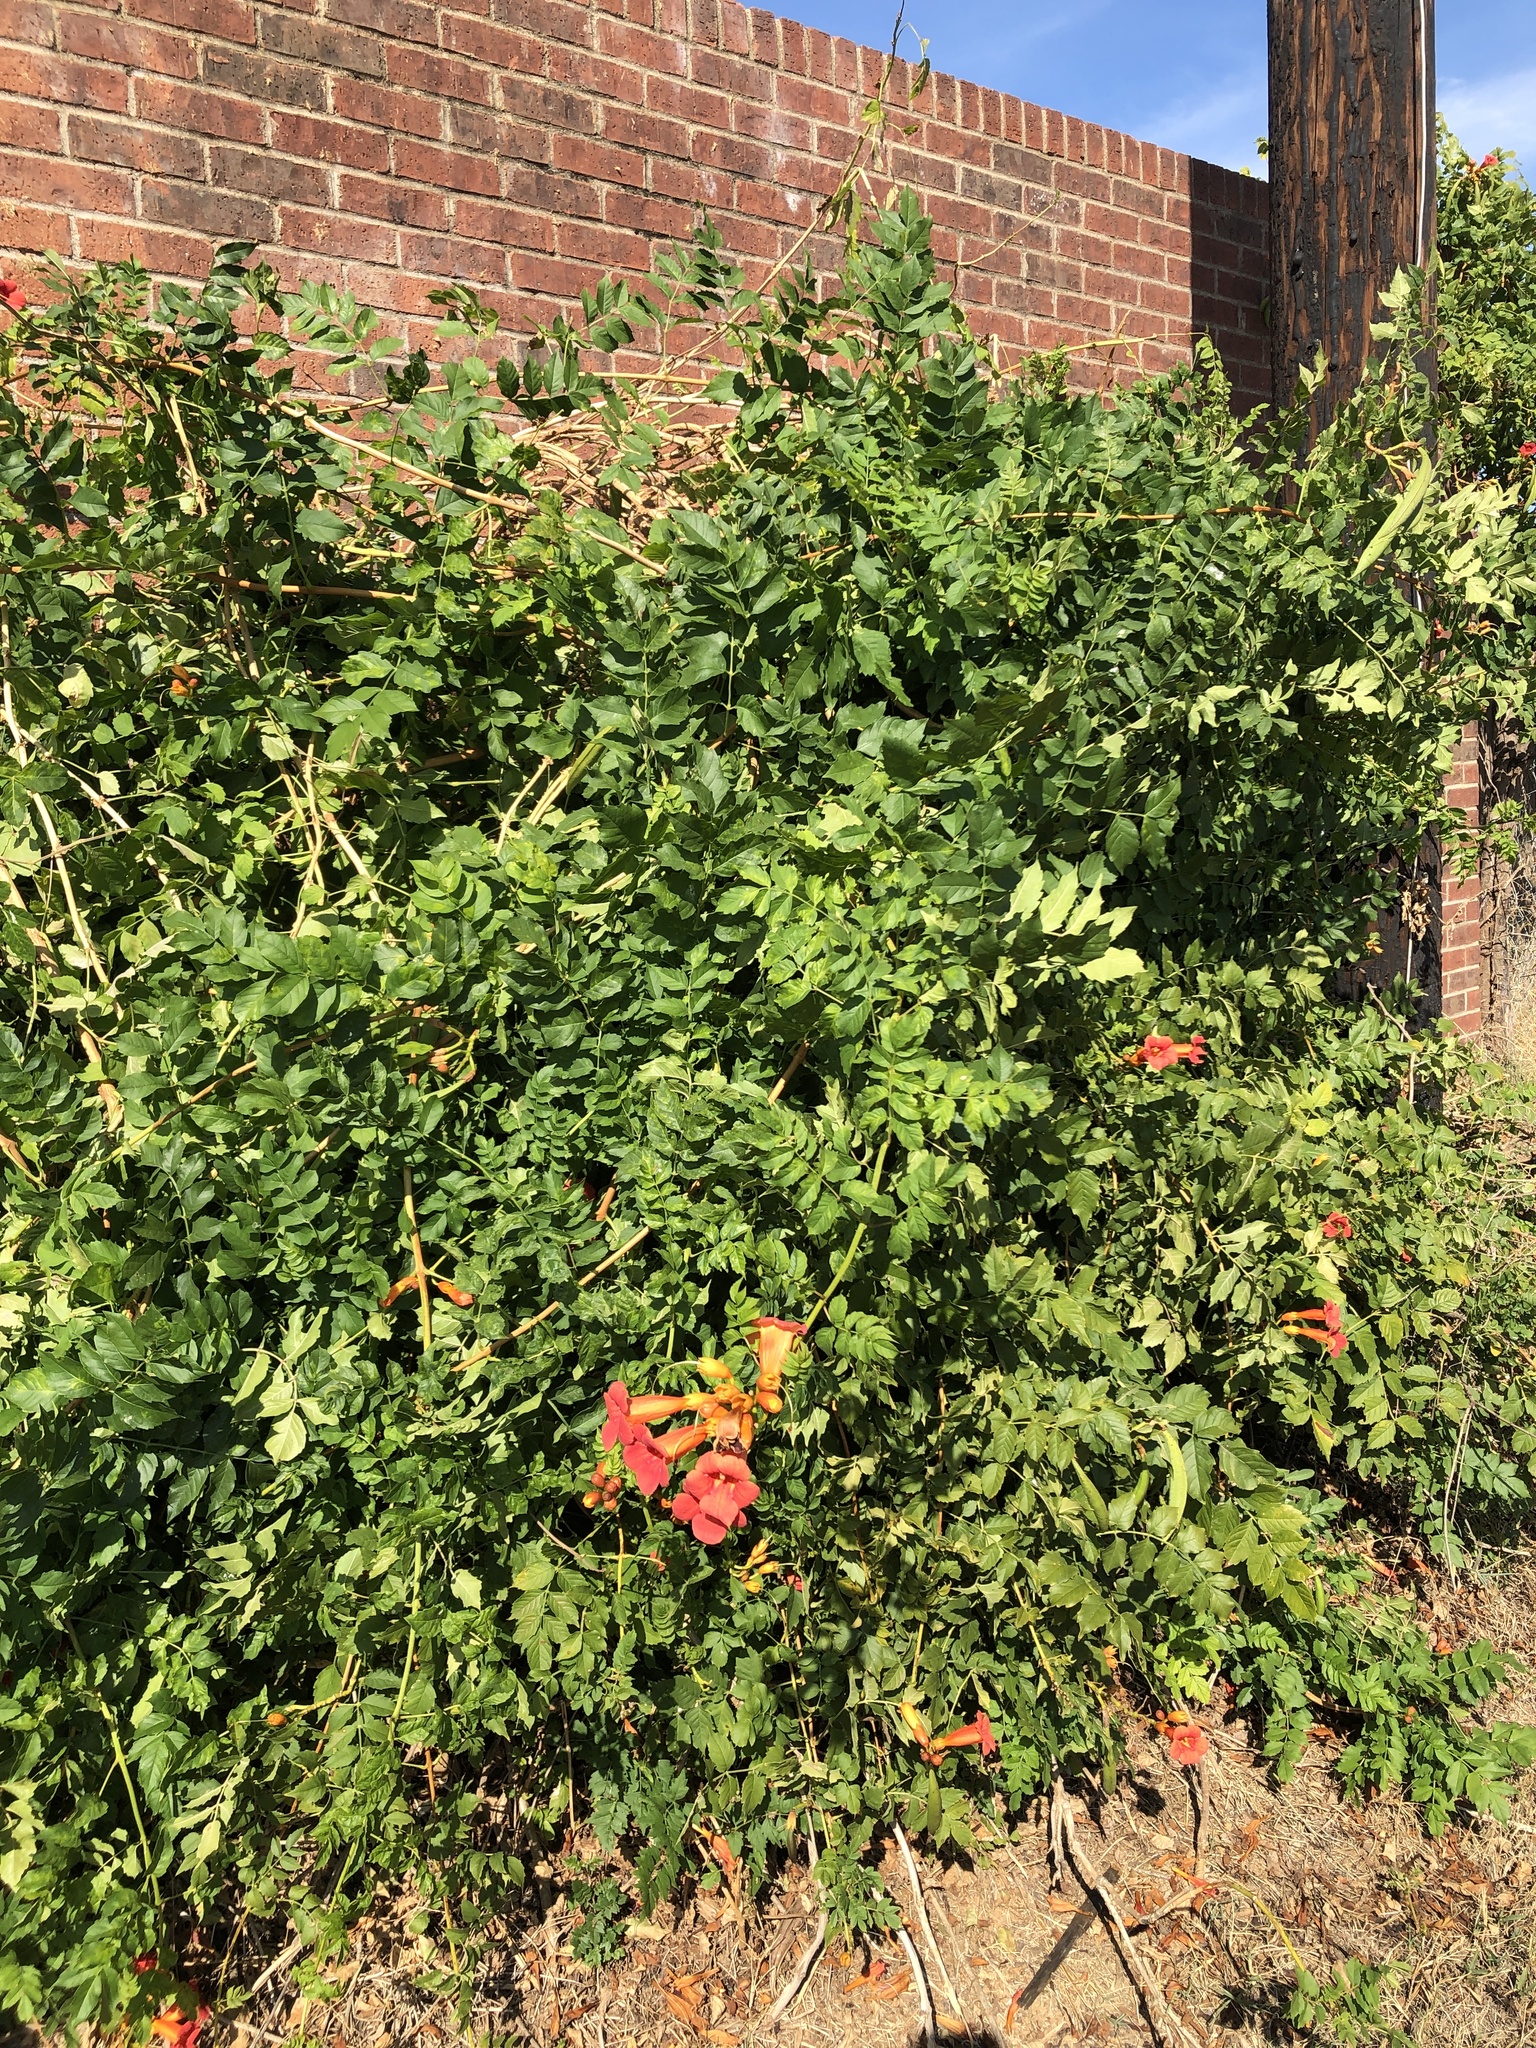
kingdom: Plantae
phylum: Tracheophyta
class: Magnoliopsida
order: Lamiales
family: Bignoniaceae
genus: Campsis
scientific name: Campsis radicans
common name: Trumpet-creeper
